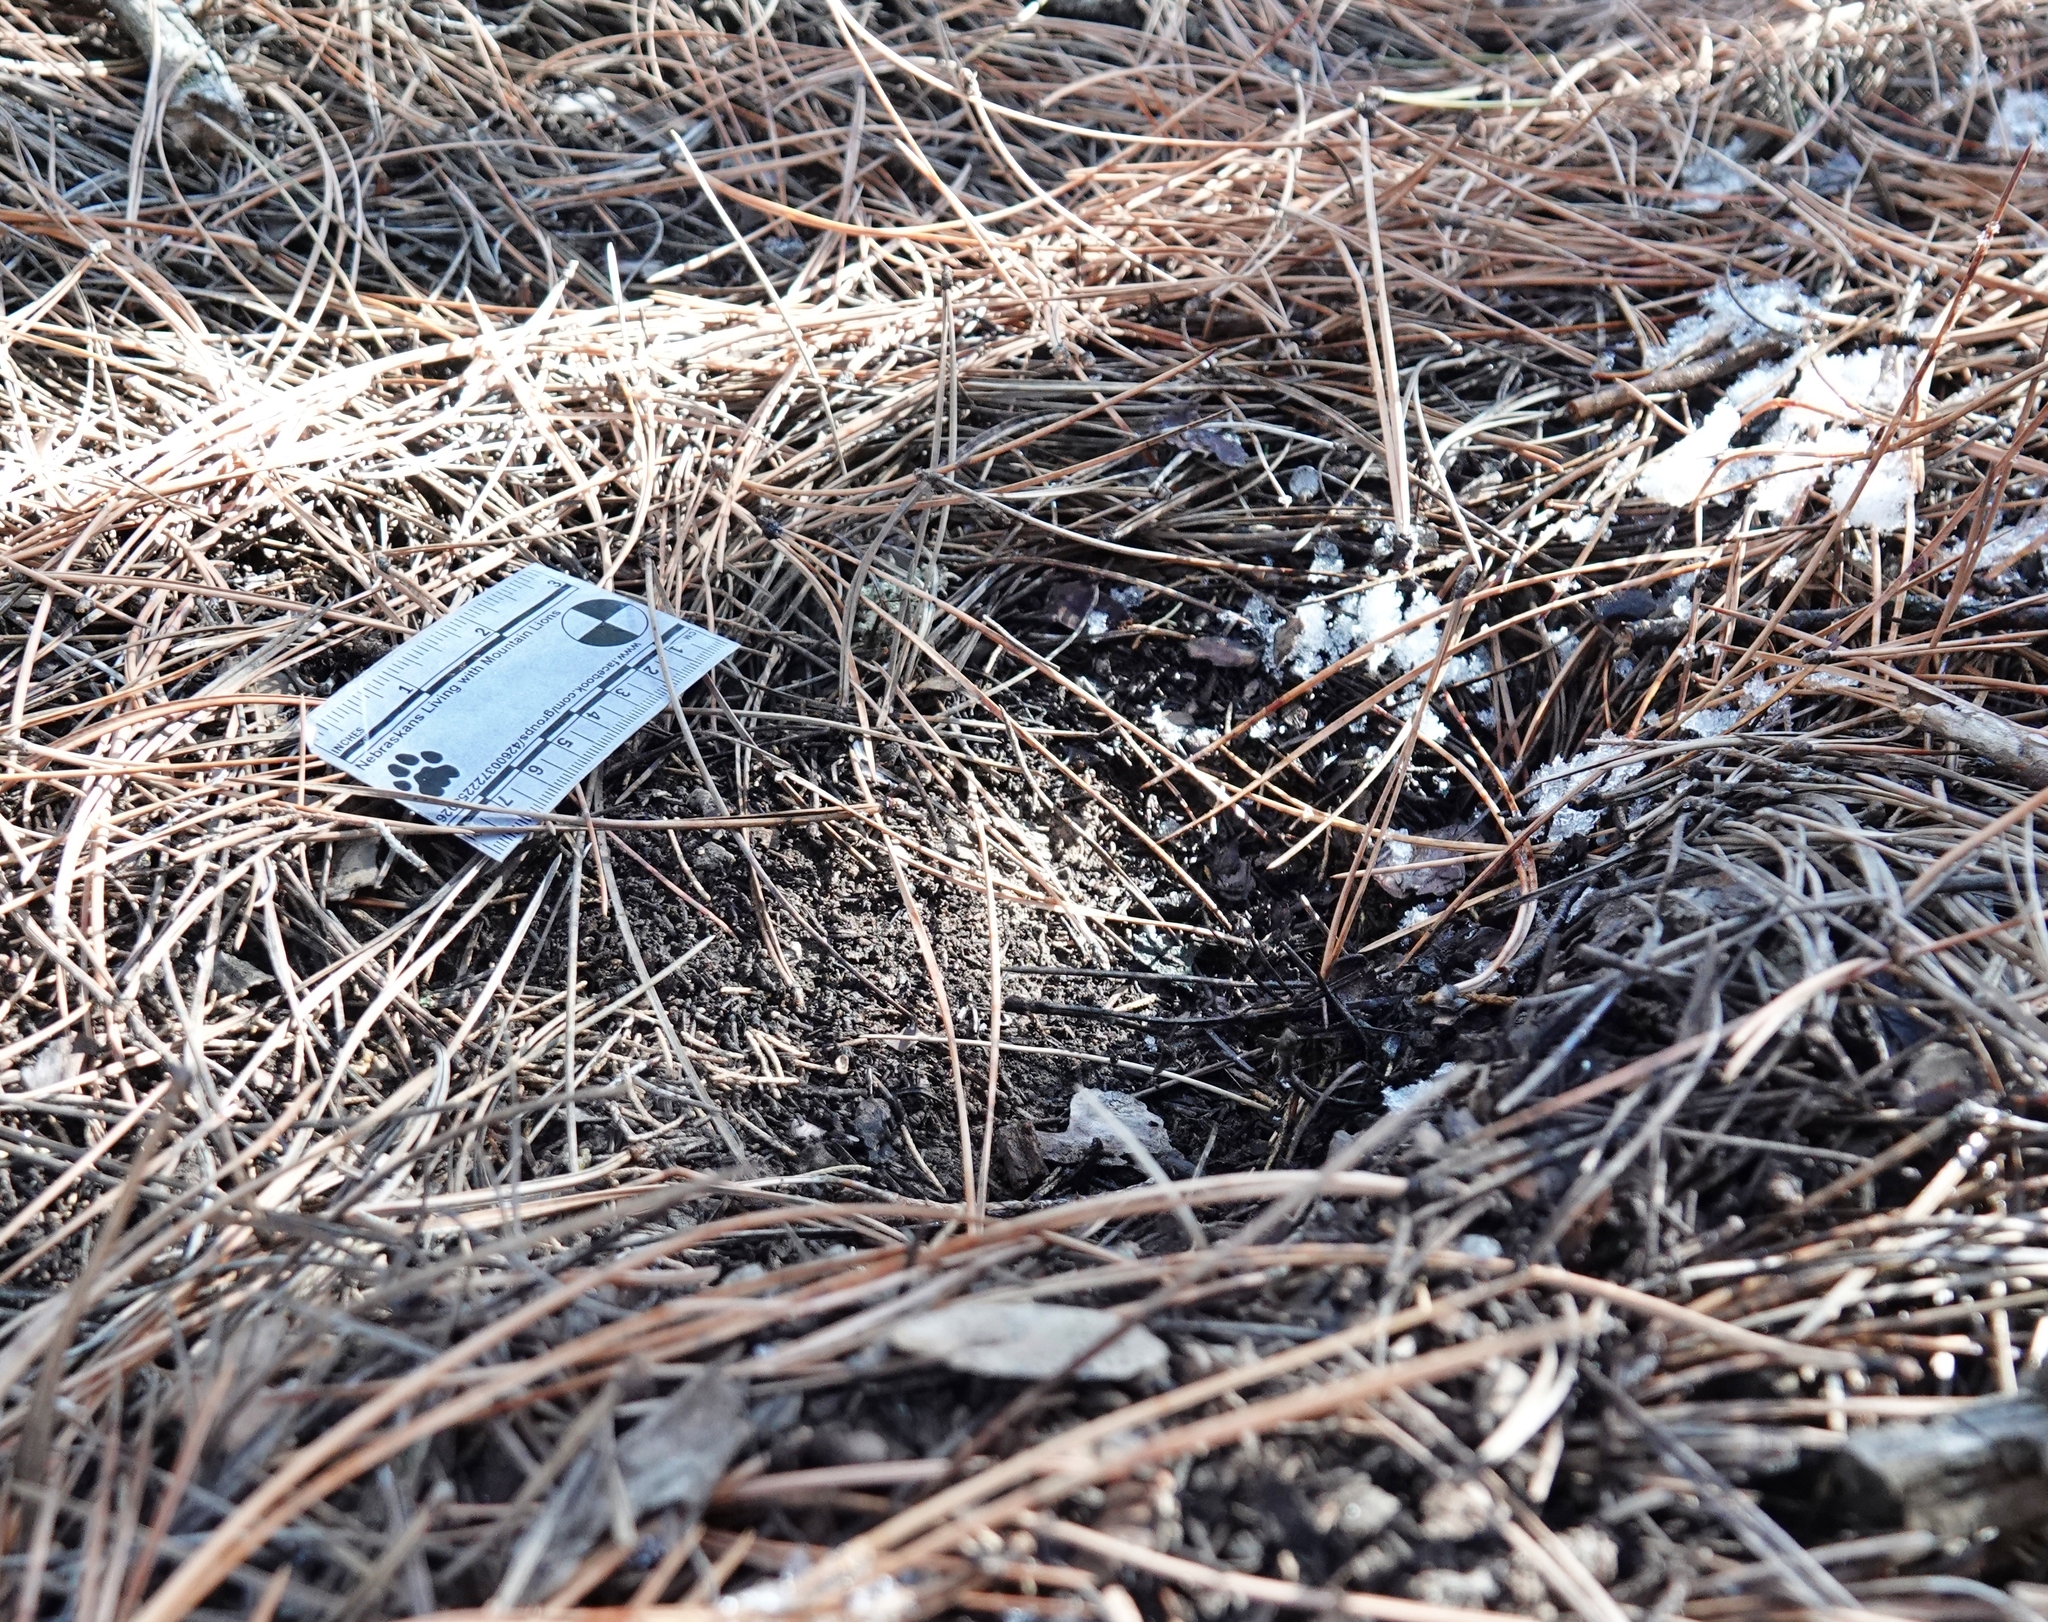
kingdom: Animalia
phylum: Chordata
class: Mammalia
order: Carnivora
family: Felidae
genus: Puma
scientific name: Puma concolor
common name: Puma
